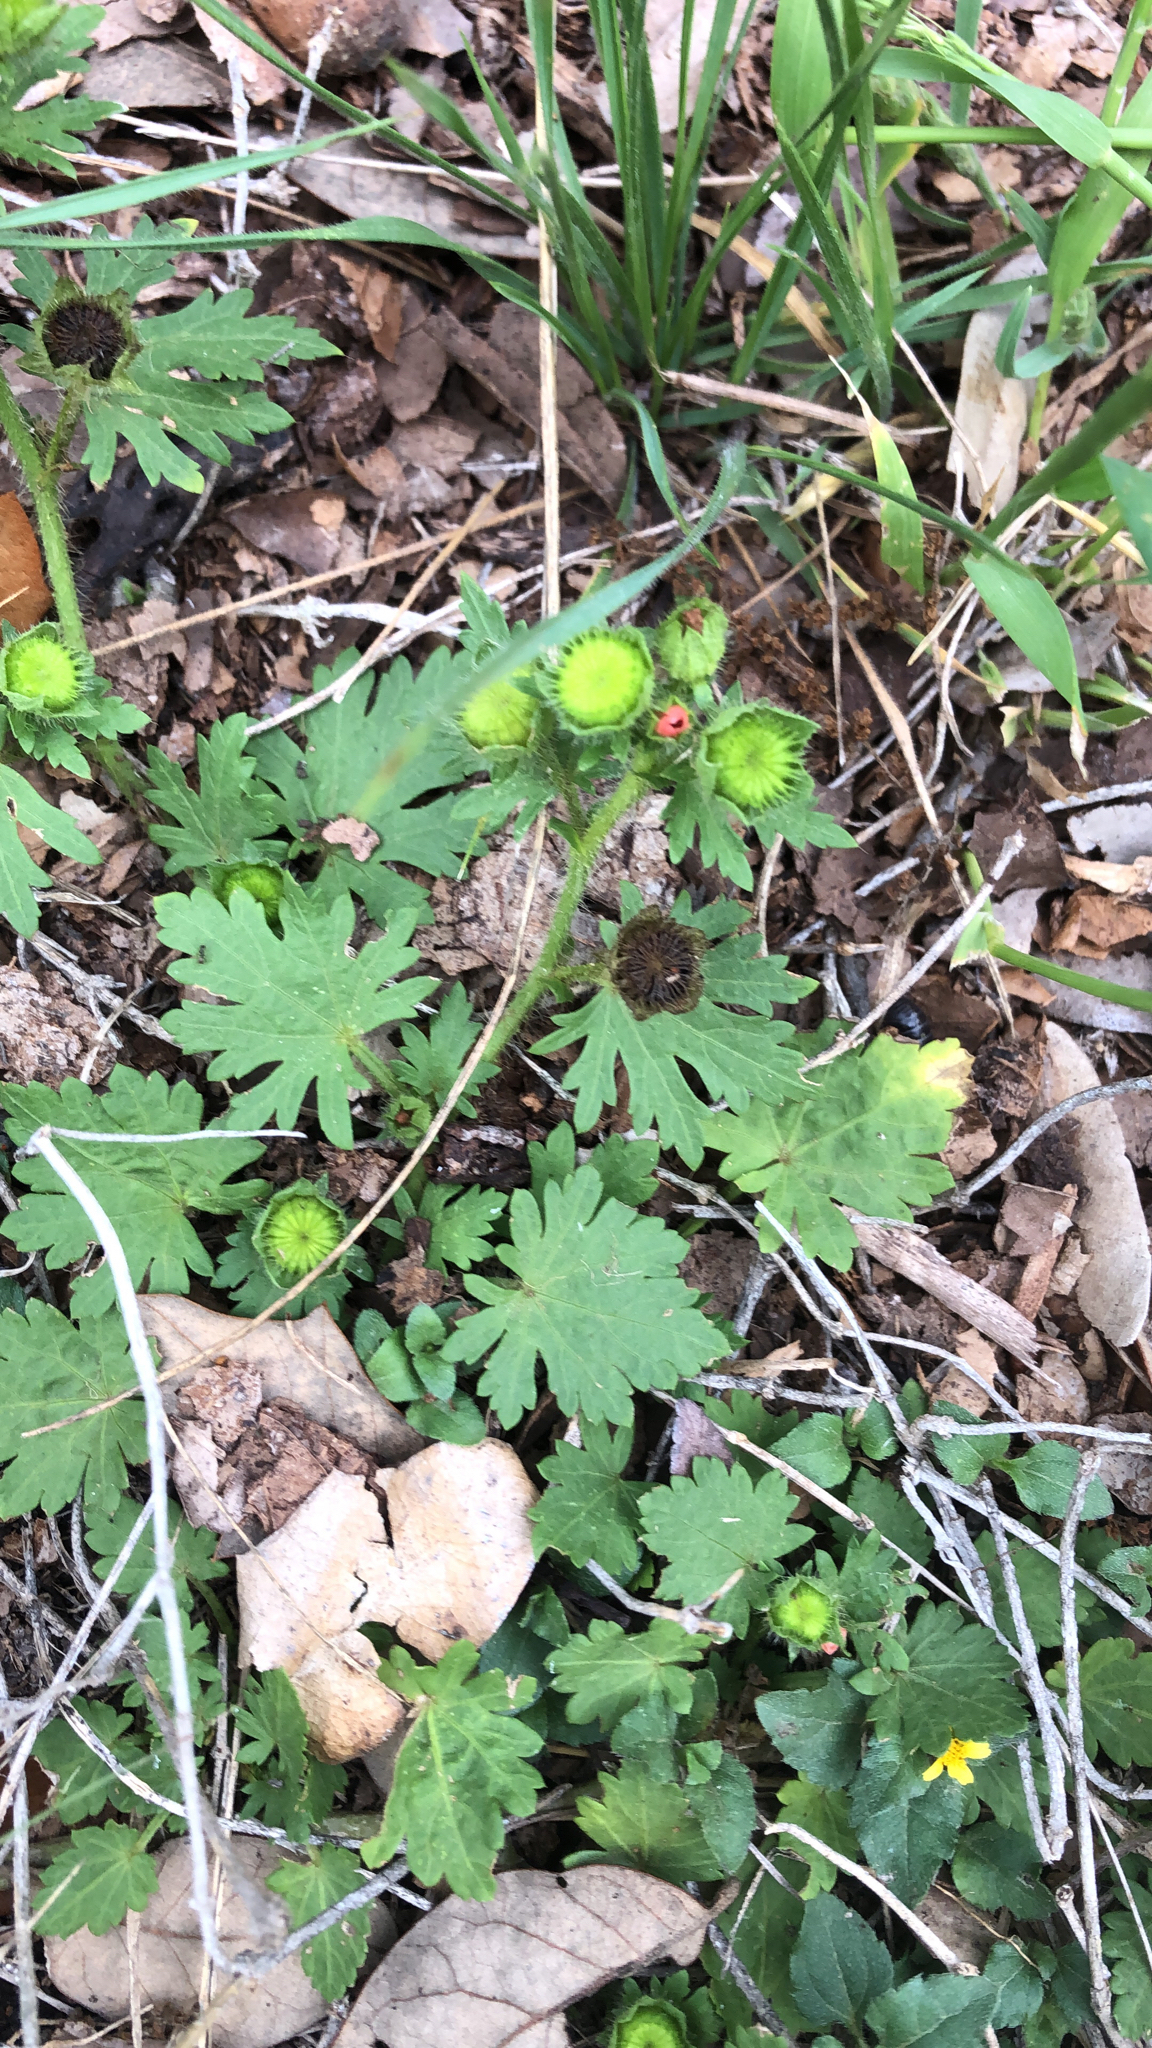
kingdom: Plantae
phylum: Tracheophyta
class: Magnoliopsida
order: Malvales
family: Malvaceae
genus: Modiola
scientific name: Modiola caroliniana
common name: Carolina bristlemallow
